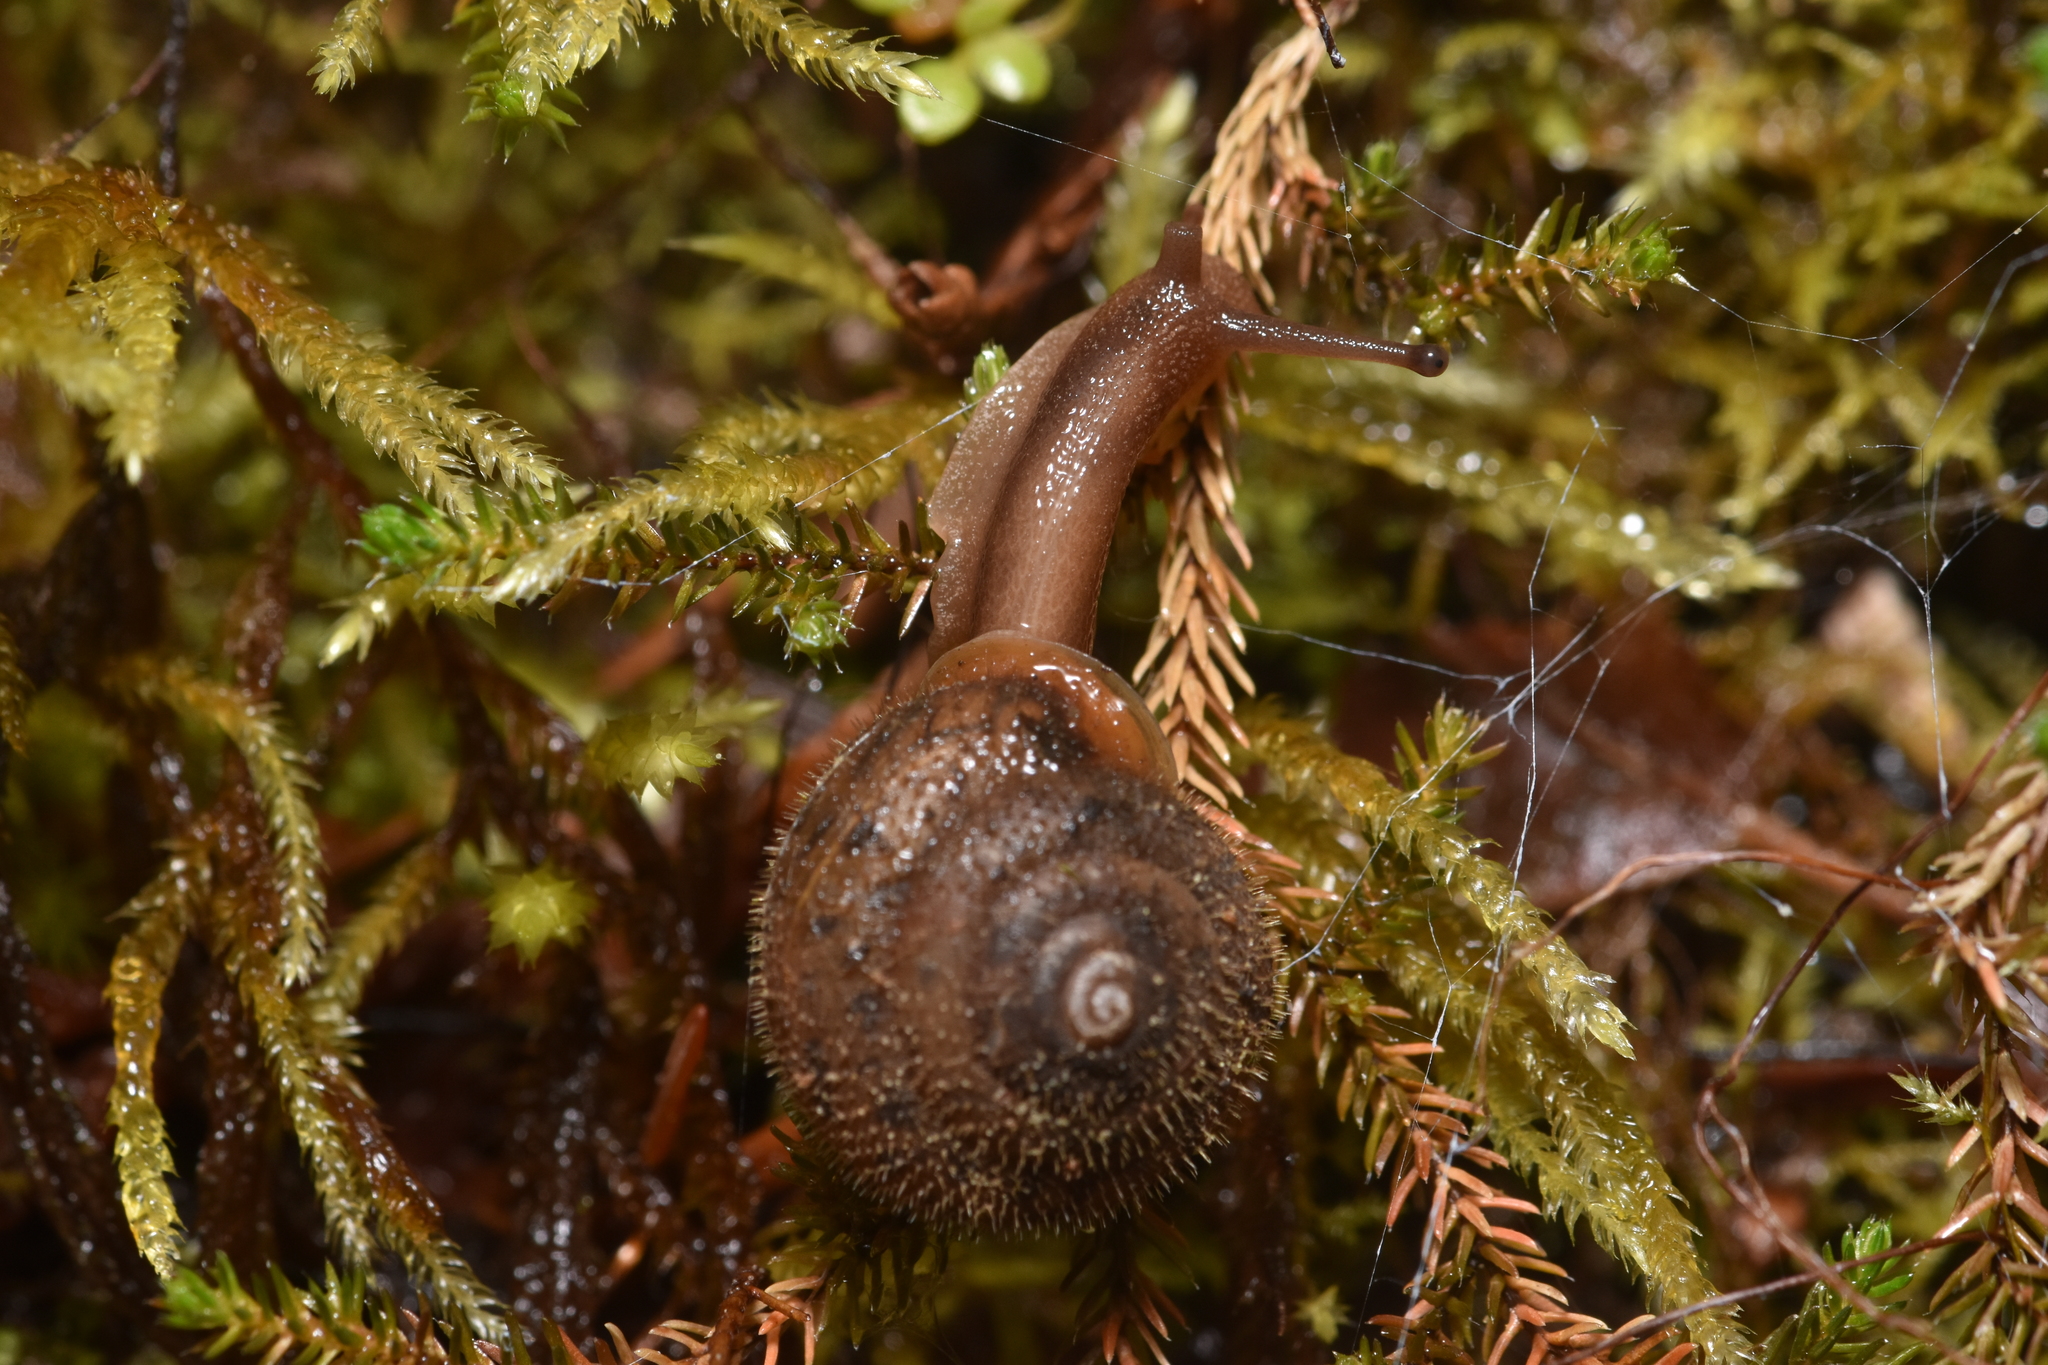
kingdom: Animalia
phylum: Mollusca
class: Gastropoda
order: Stylommatophora
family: Polygyridae
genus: Vespericola
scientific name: Vespericola columbianus
